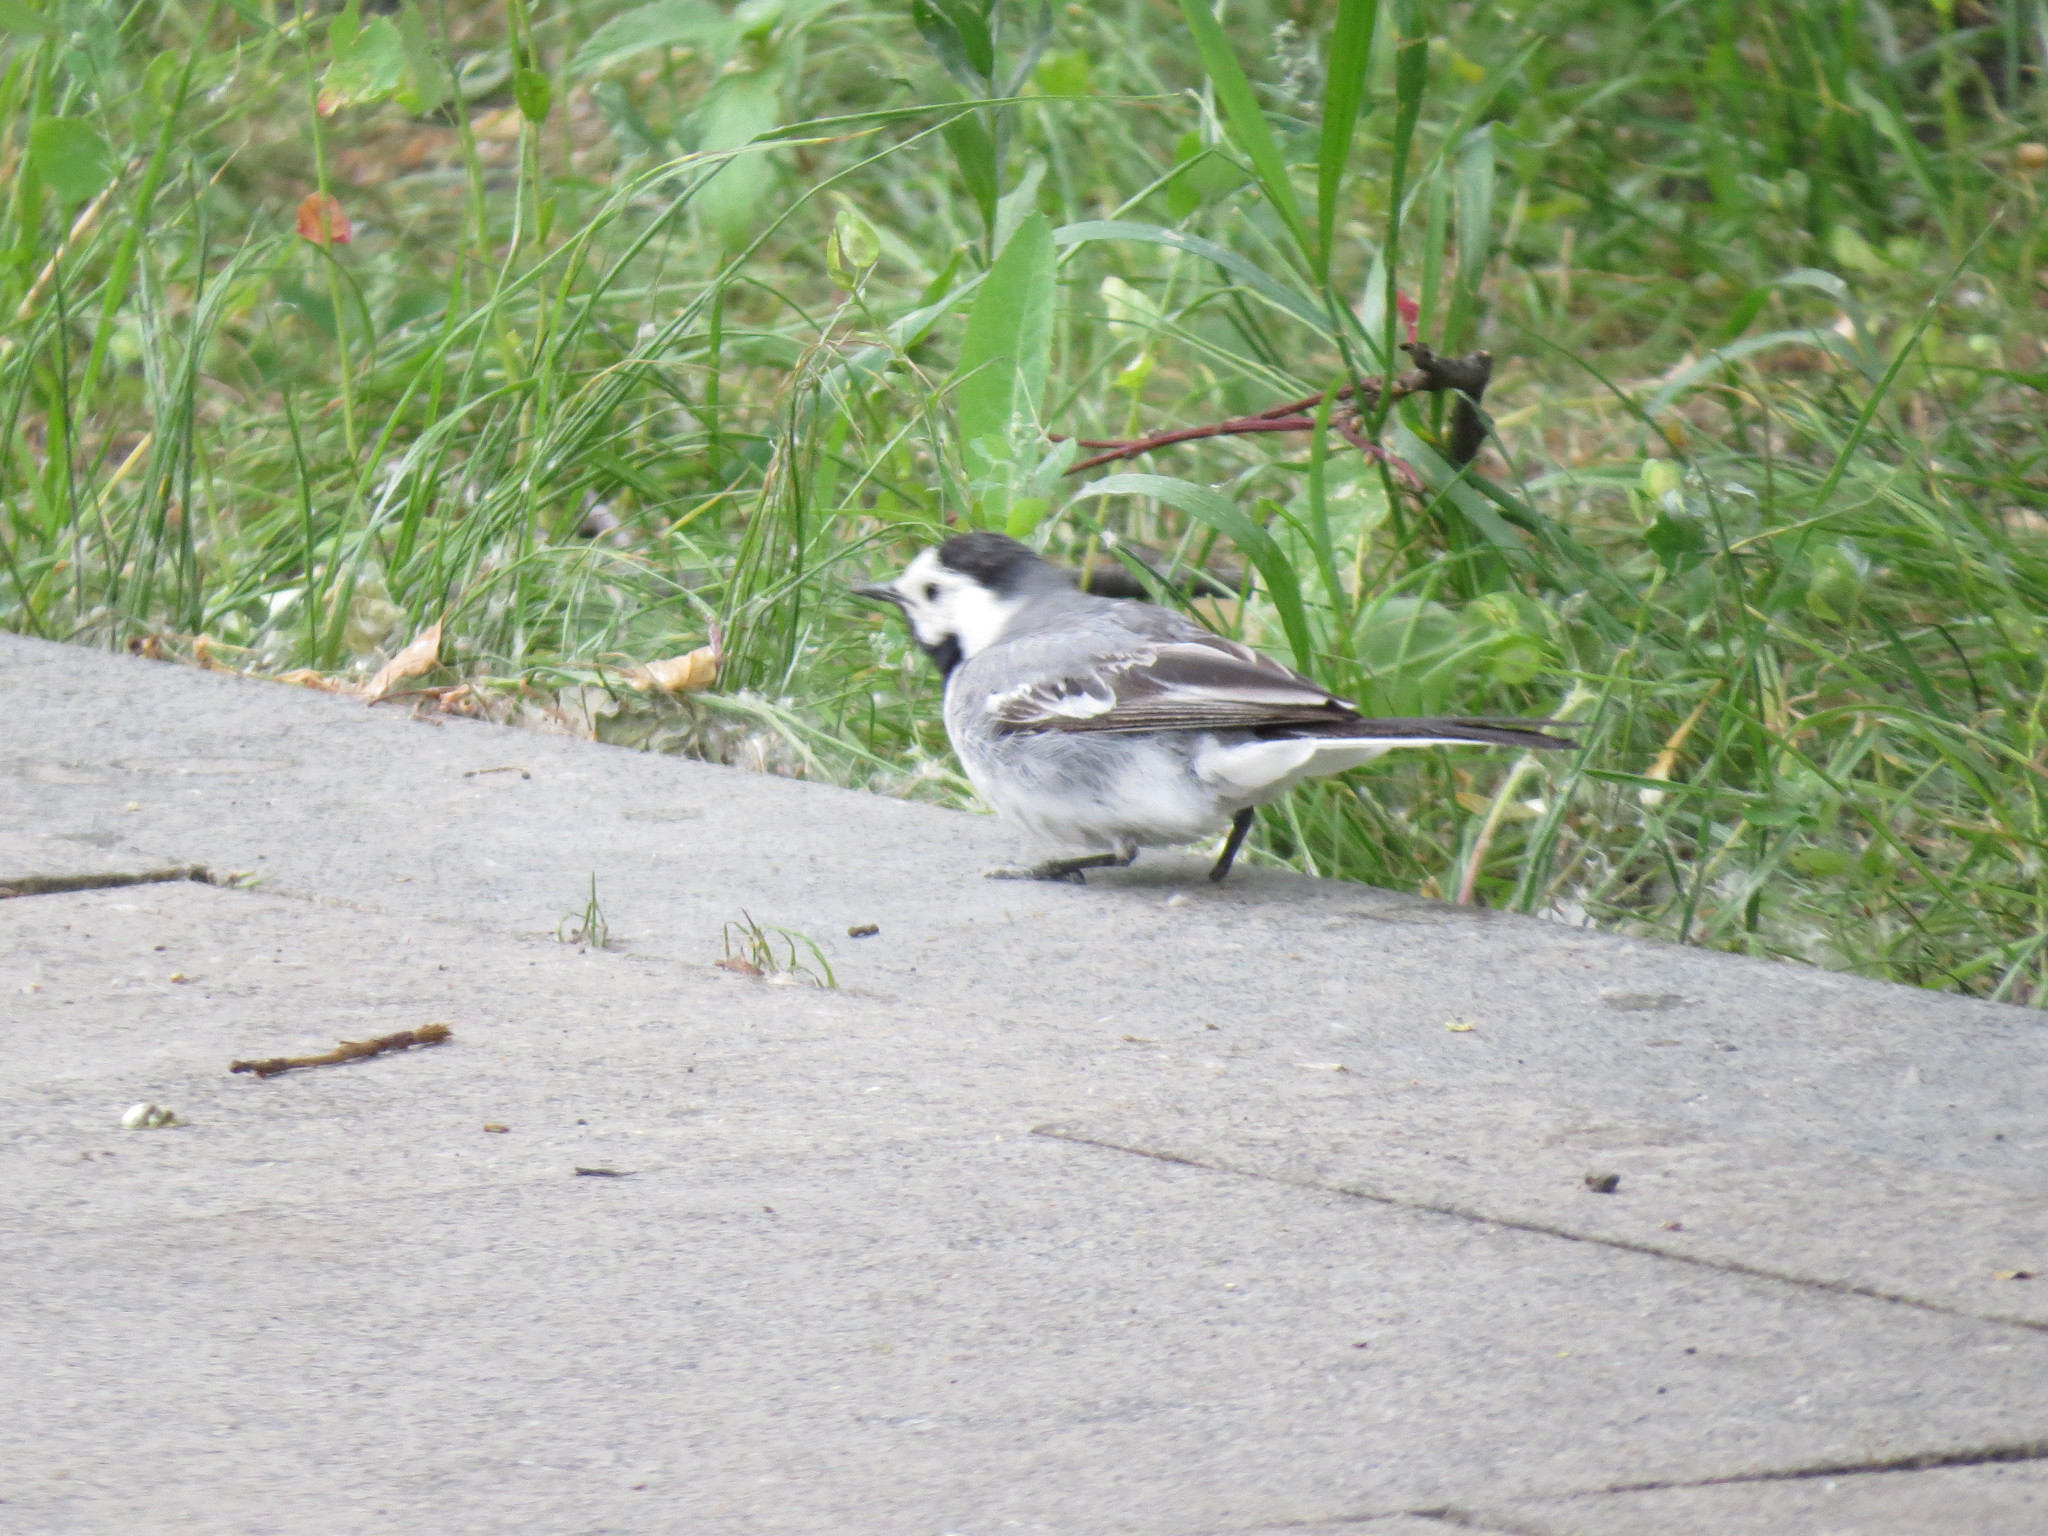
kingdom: Animalia
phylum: Chordata
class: Aves
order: Passeriformes
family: Motacillidae
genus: Motacilla
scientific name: Motacilla alba
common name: White wagtail
